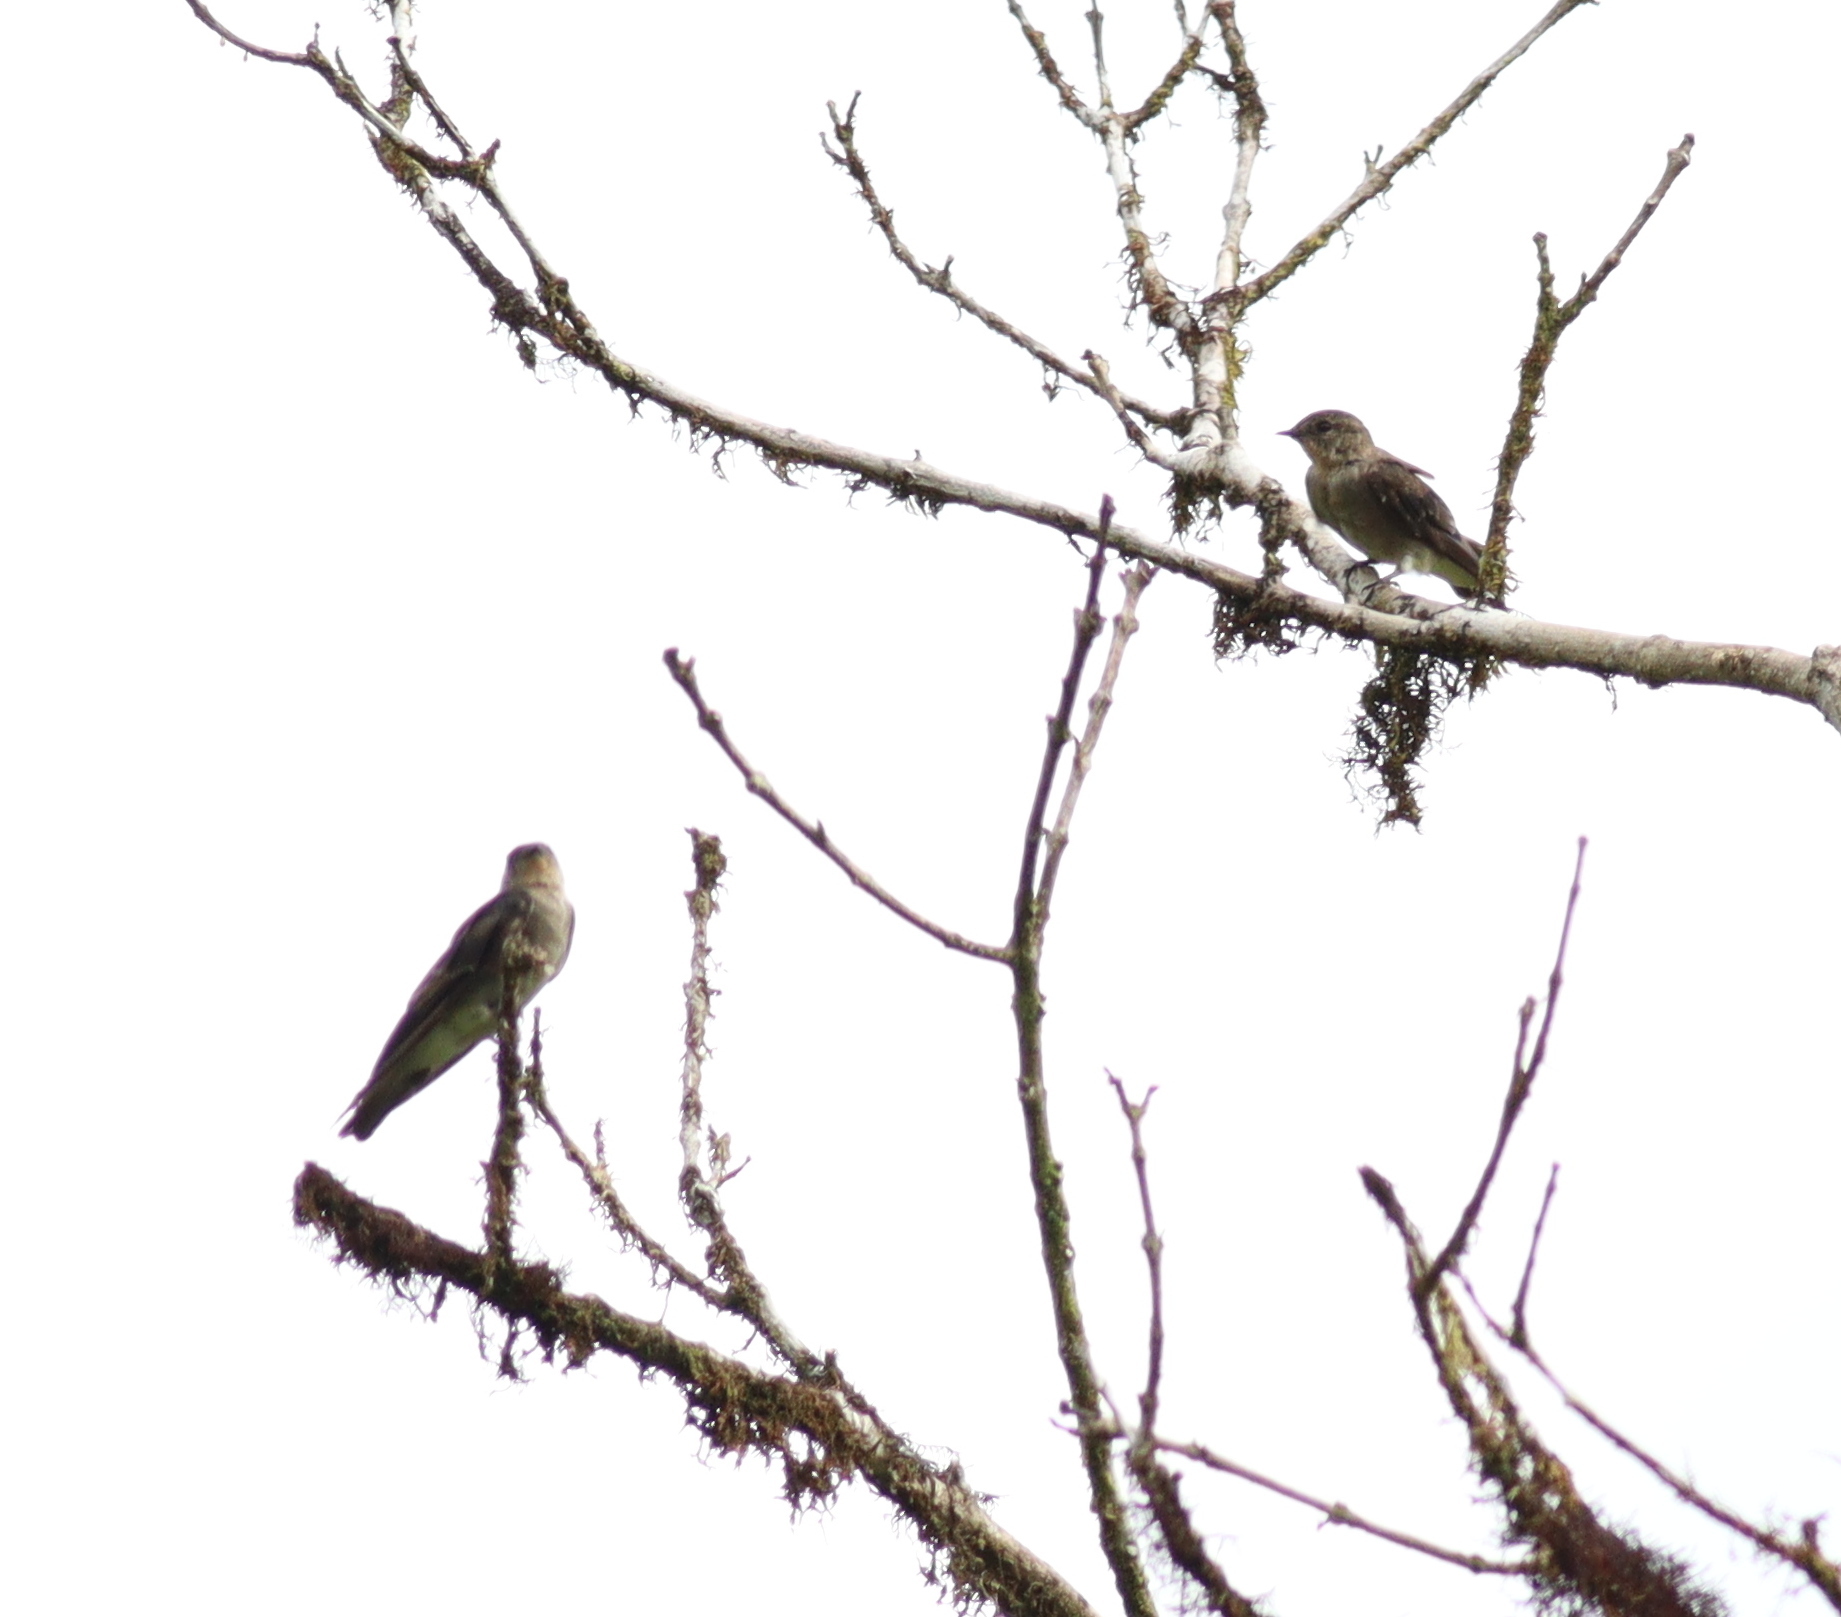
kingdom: Animalia
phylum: Chordata
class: Aves
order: Passeriformes
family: Hirundinidae
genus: Stelgidopteryx
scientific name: Stelgidopteryx ruficollis
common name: Southern rough-winged swallow
